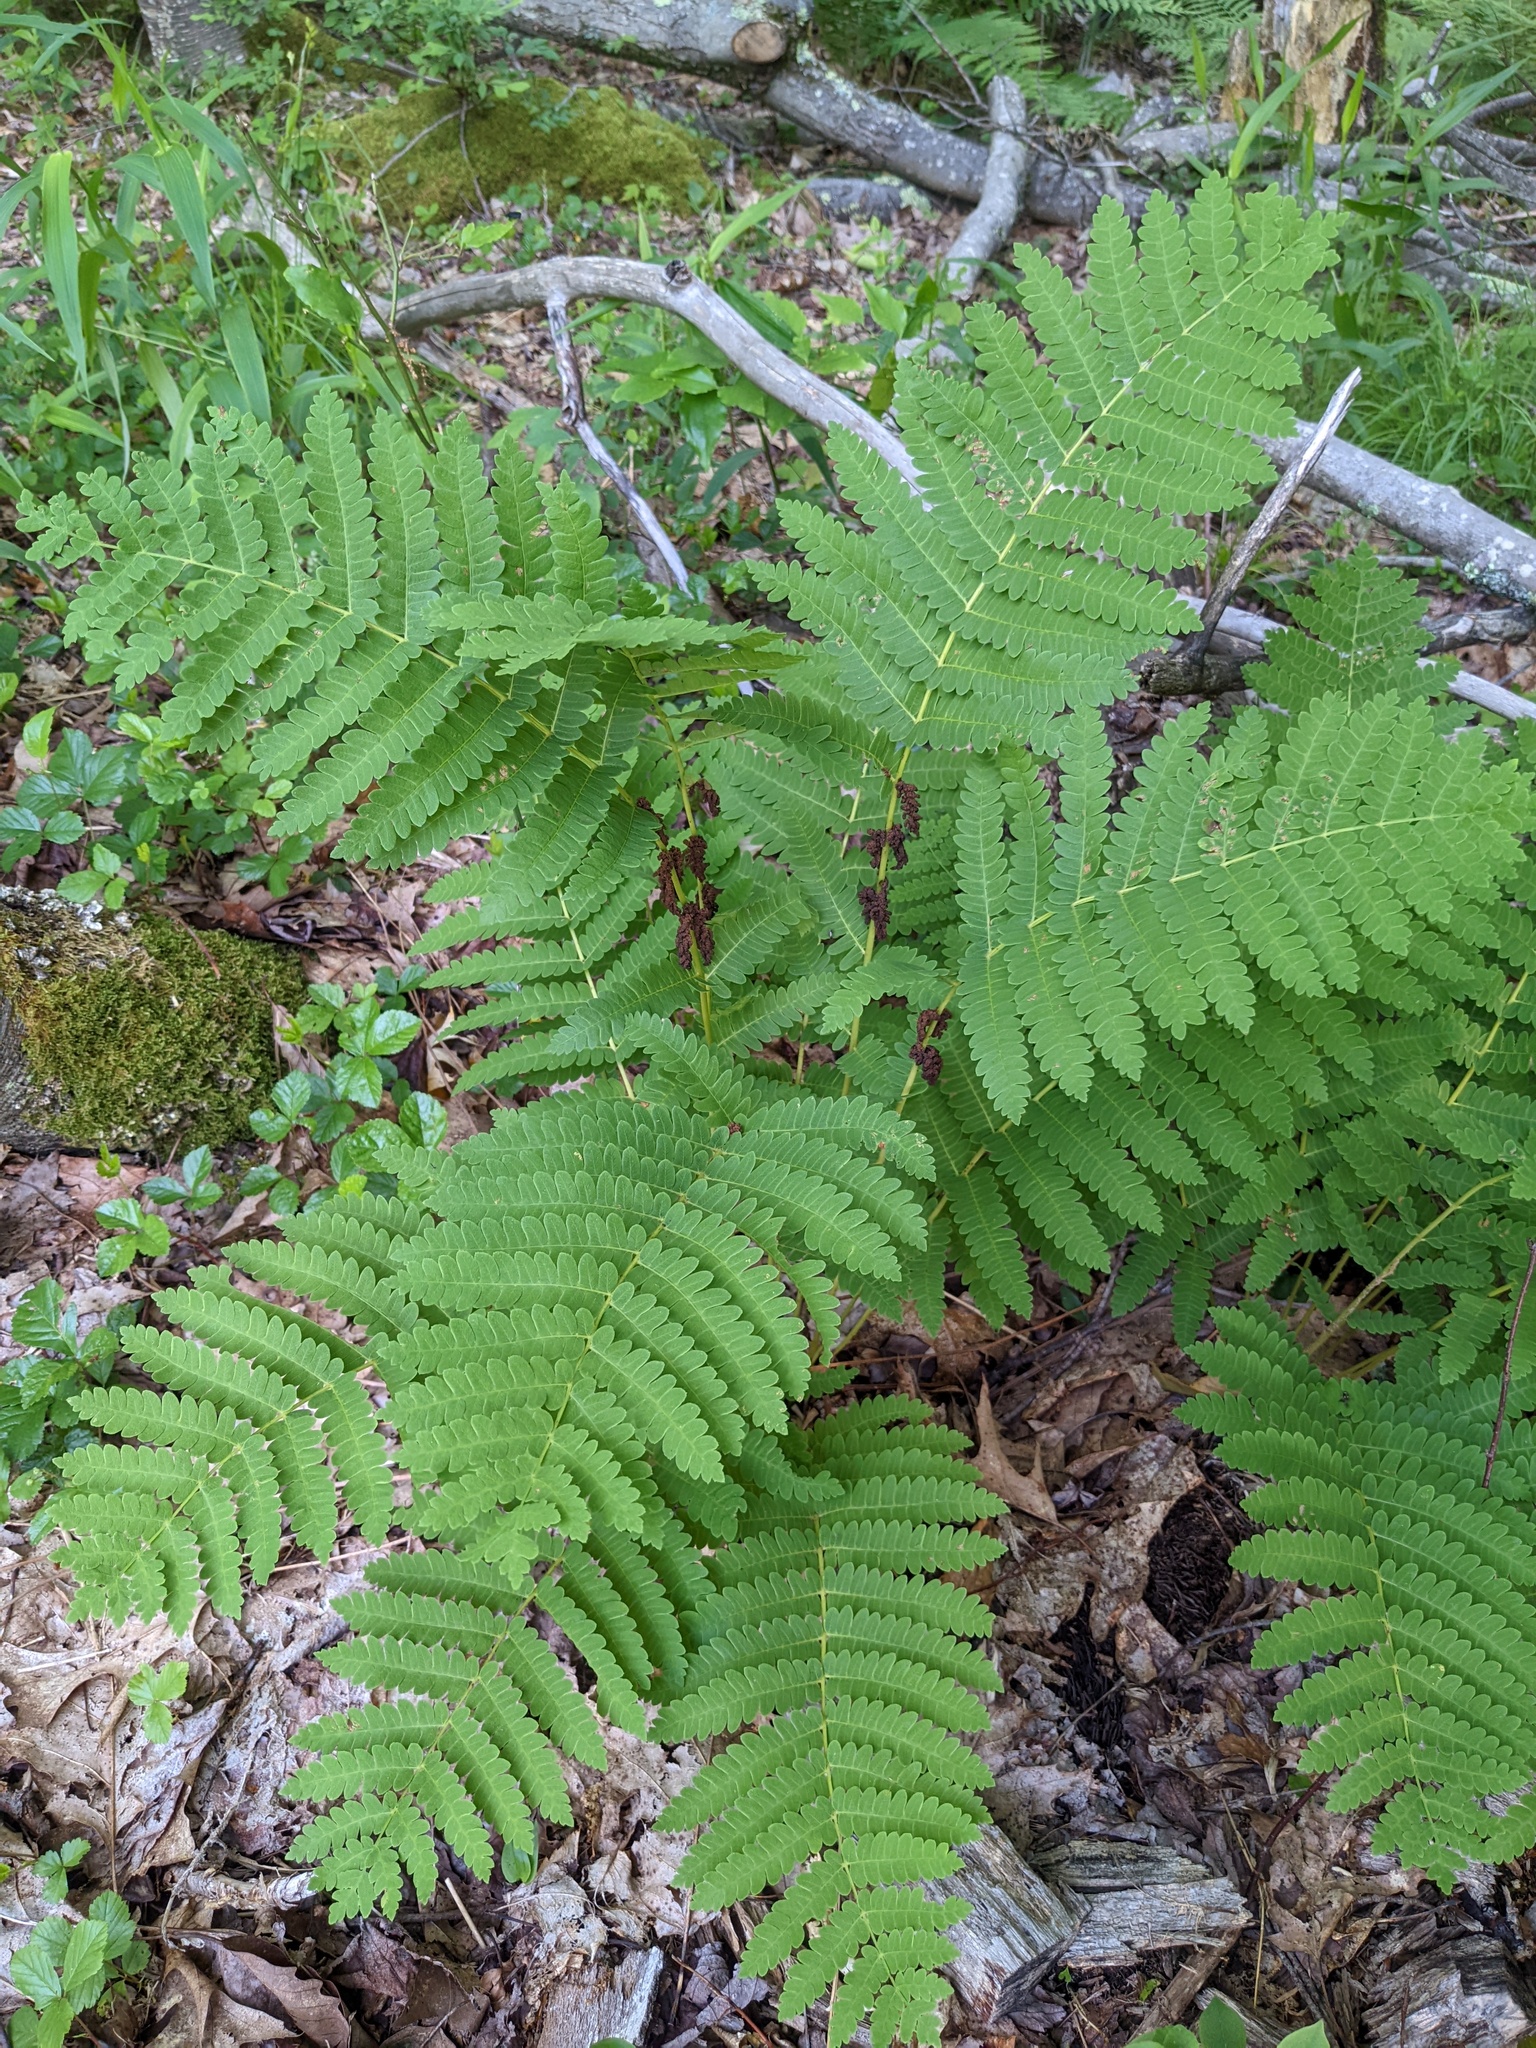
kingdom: Plantae
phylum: Tracheophyta
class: Polypodiopsida
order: Osmundales
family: Osmundaceae
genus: Claytosmunda
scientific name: Claytosmunda claytoniana
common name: Clayton's fern
